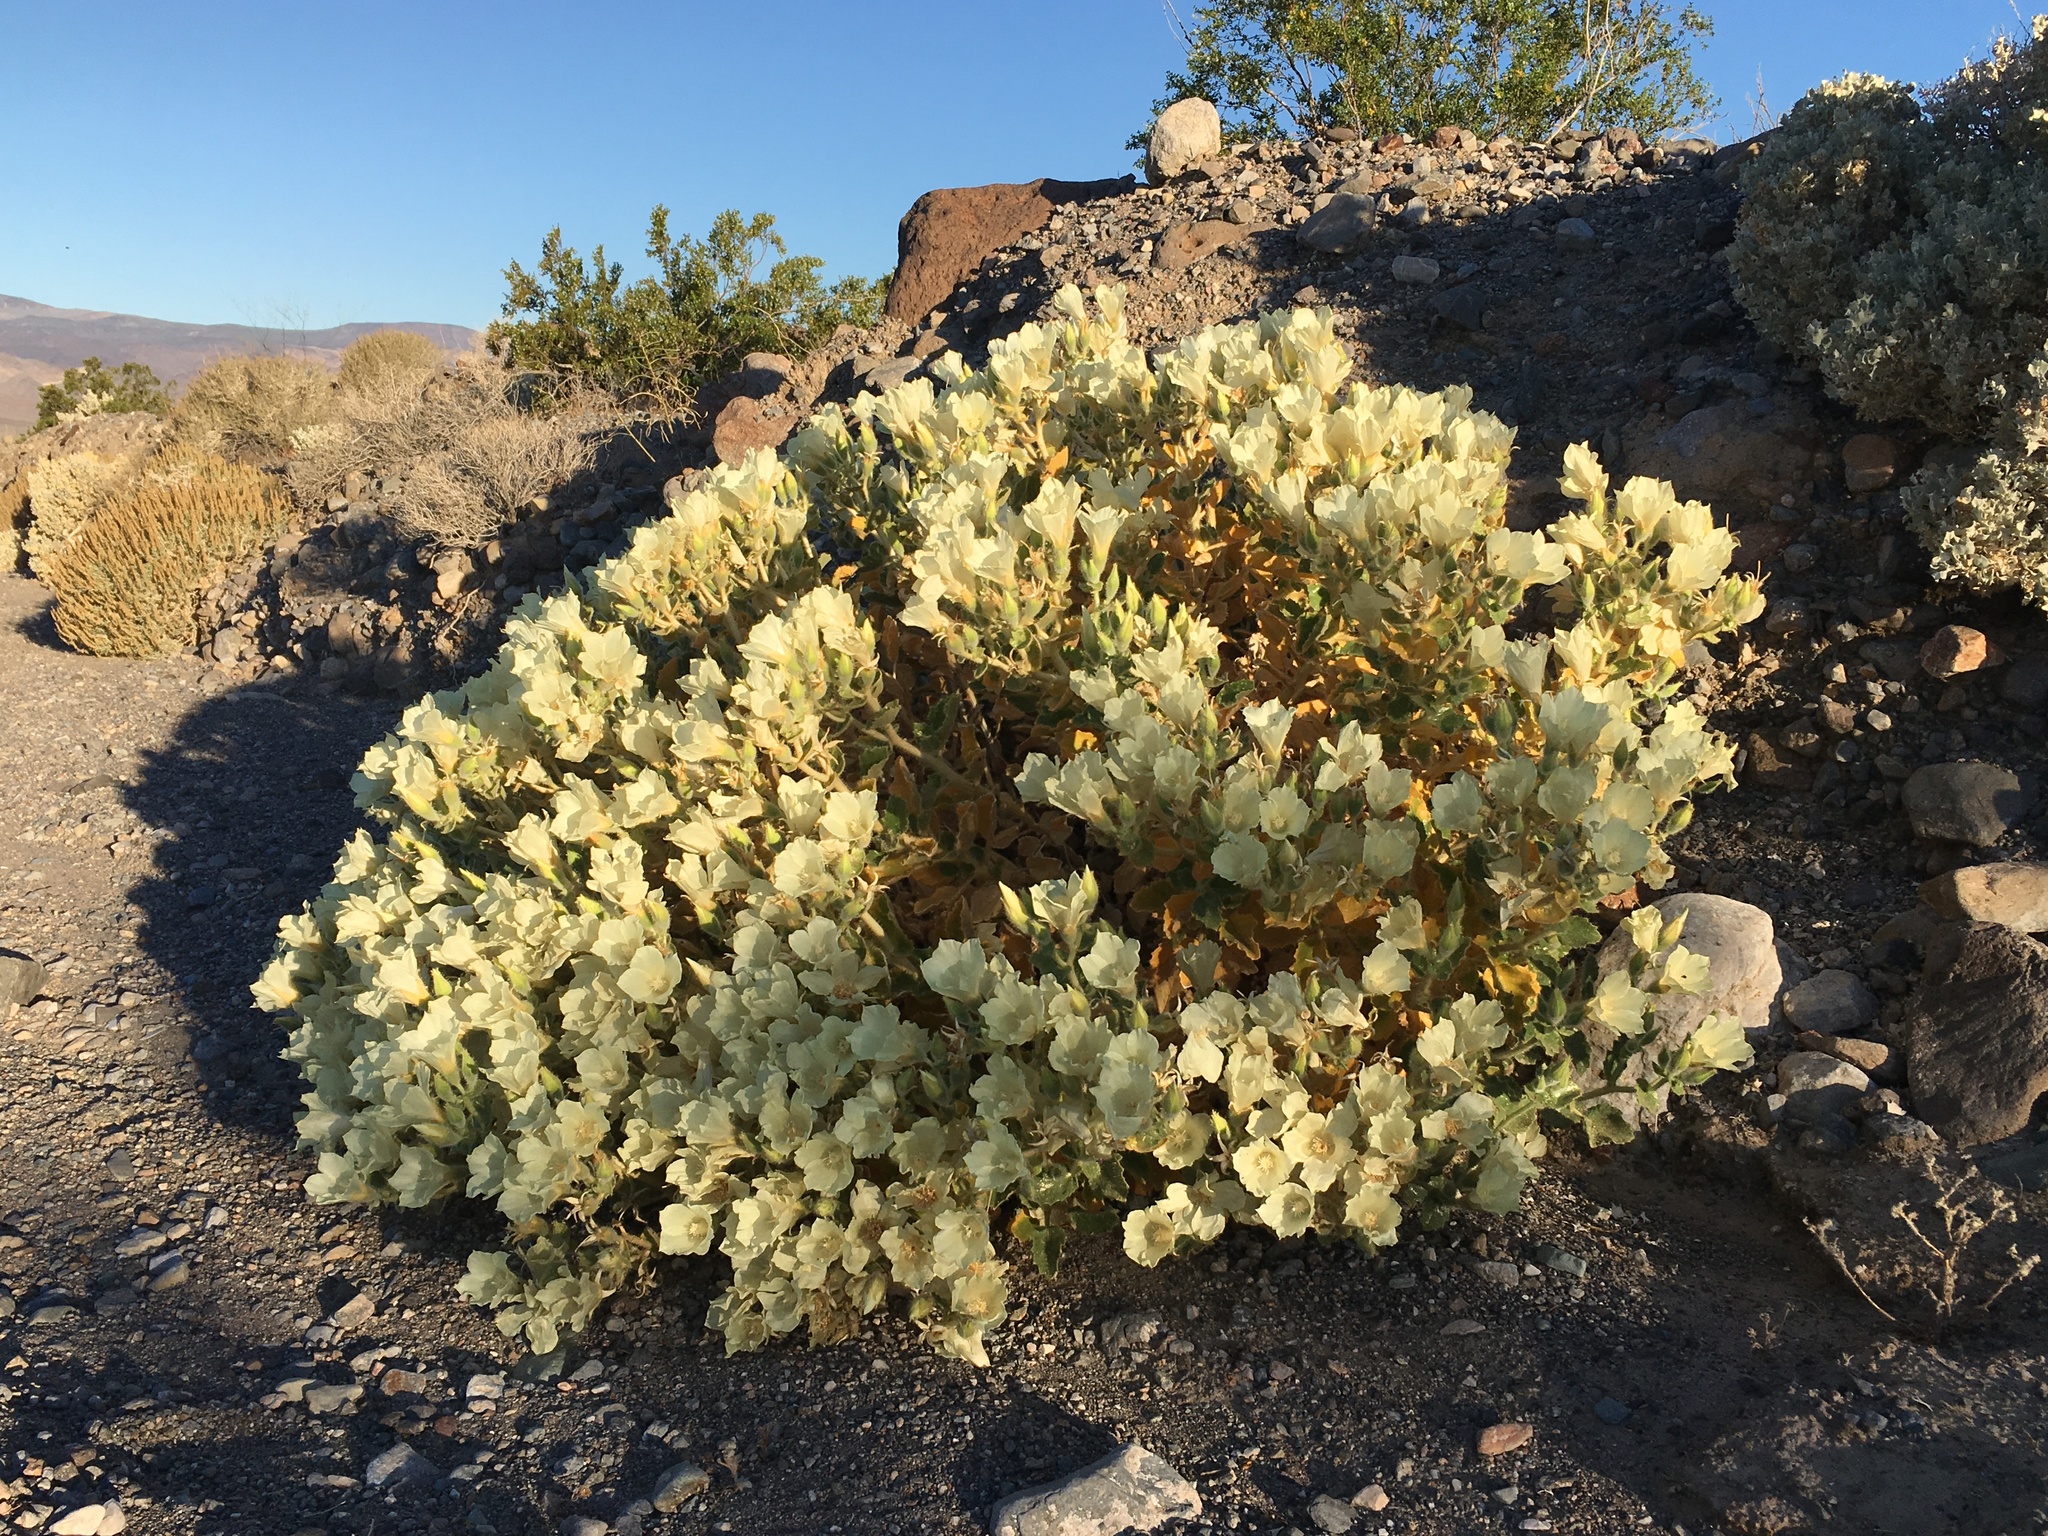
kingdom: Plantae
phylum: Tracheophyta
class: Magnoliopsida
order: Cornales
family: Loasaceae
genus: Eucnide
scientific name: Eucnide urens
